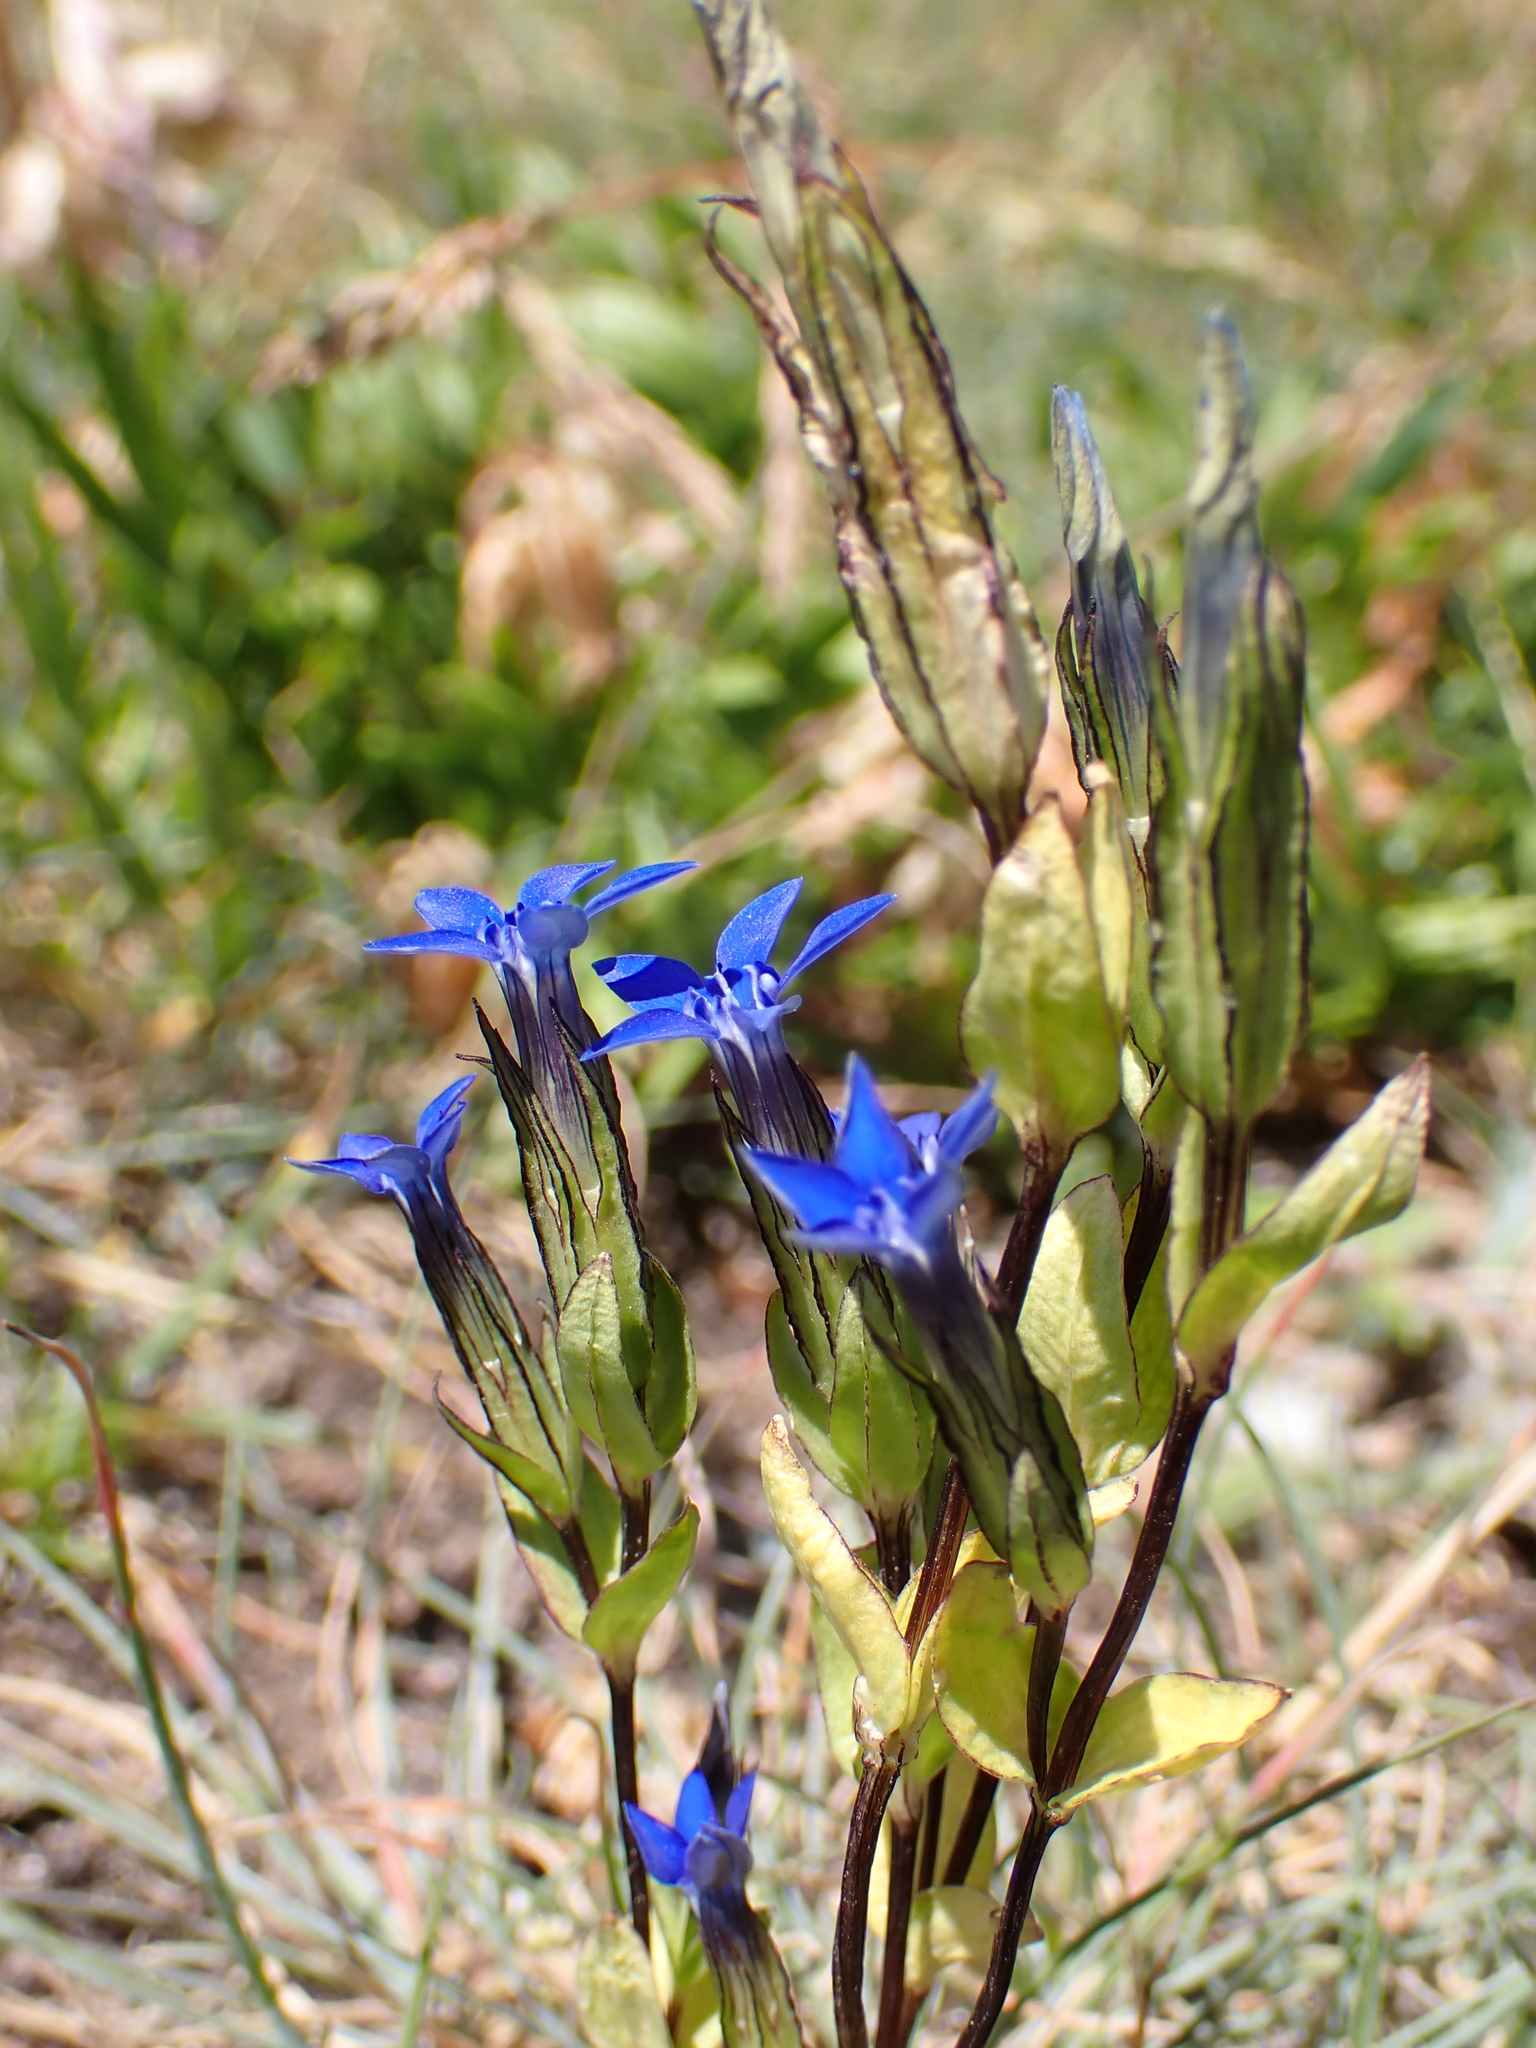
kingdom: Plantae
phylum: Tracheophyta
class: Magnoliopsida
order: Gentianales
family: Gentianaceae
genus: Gentiana
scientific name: Gentiana nivalis
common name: Alpine gentian
